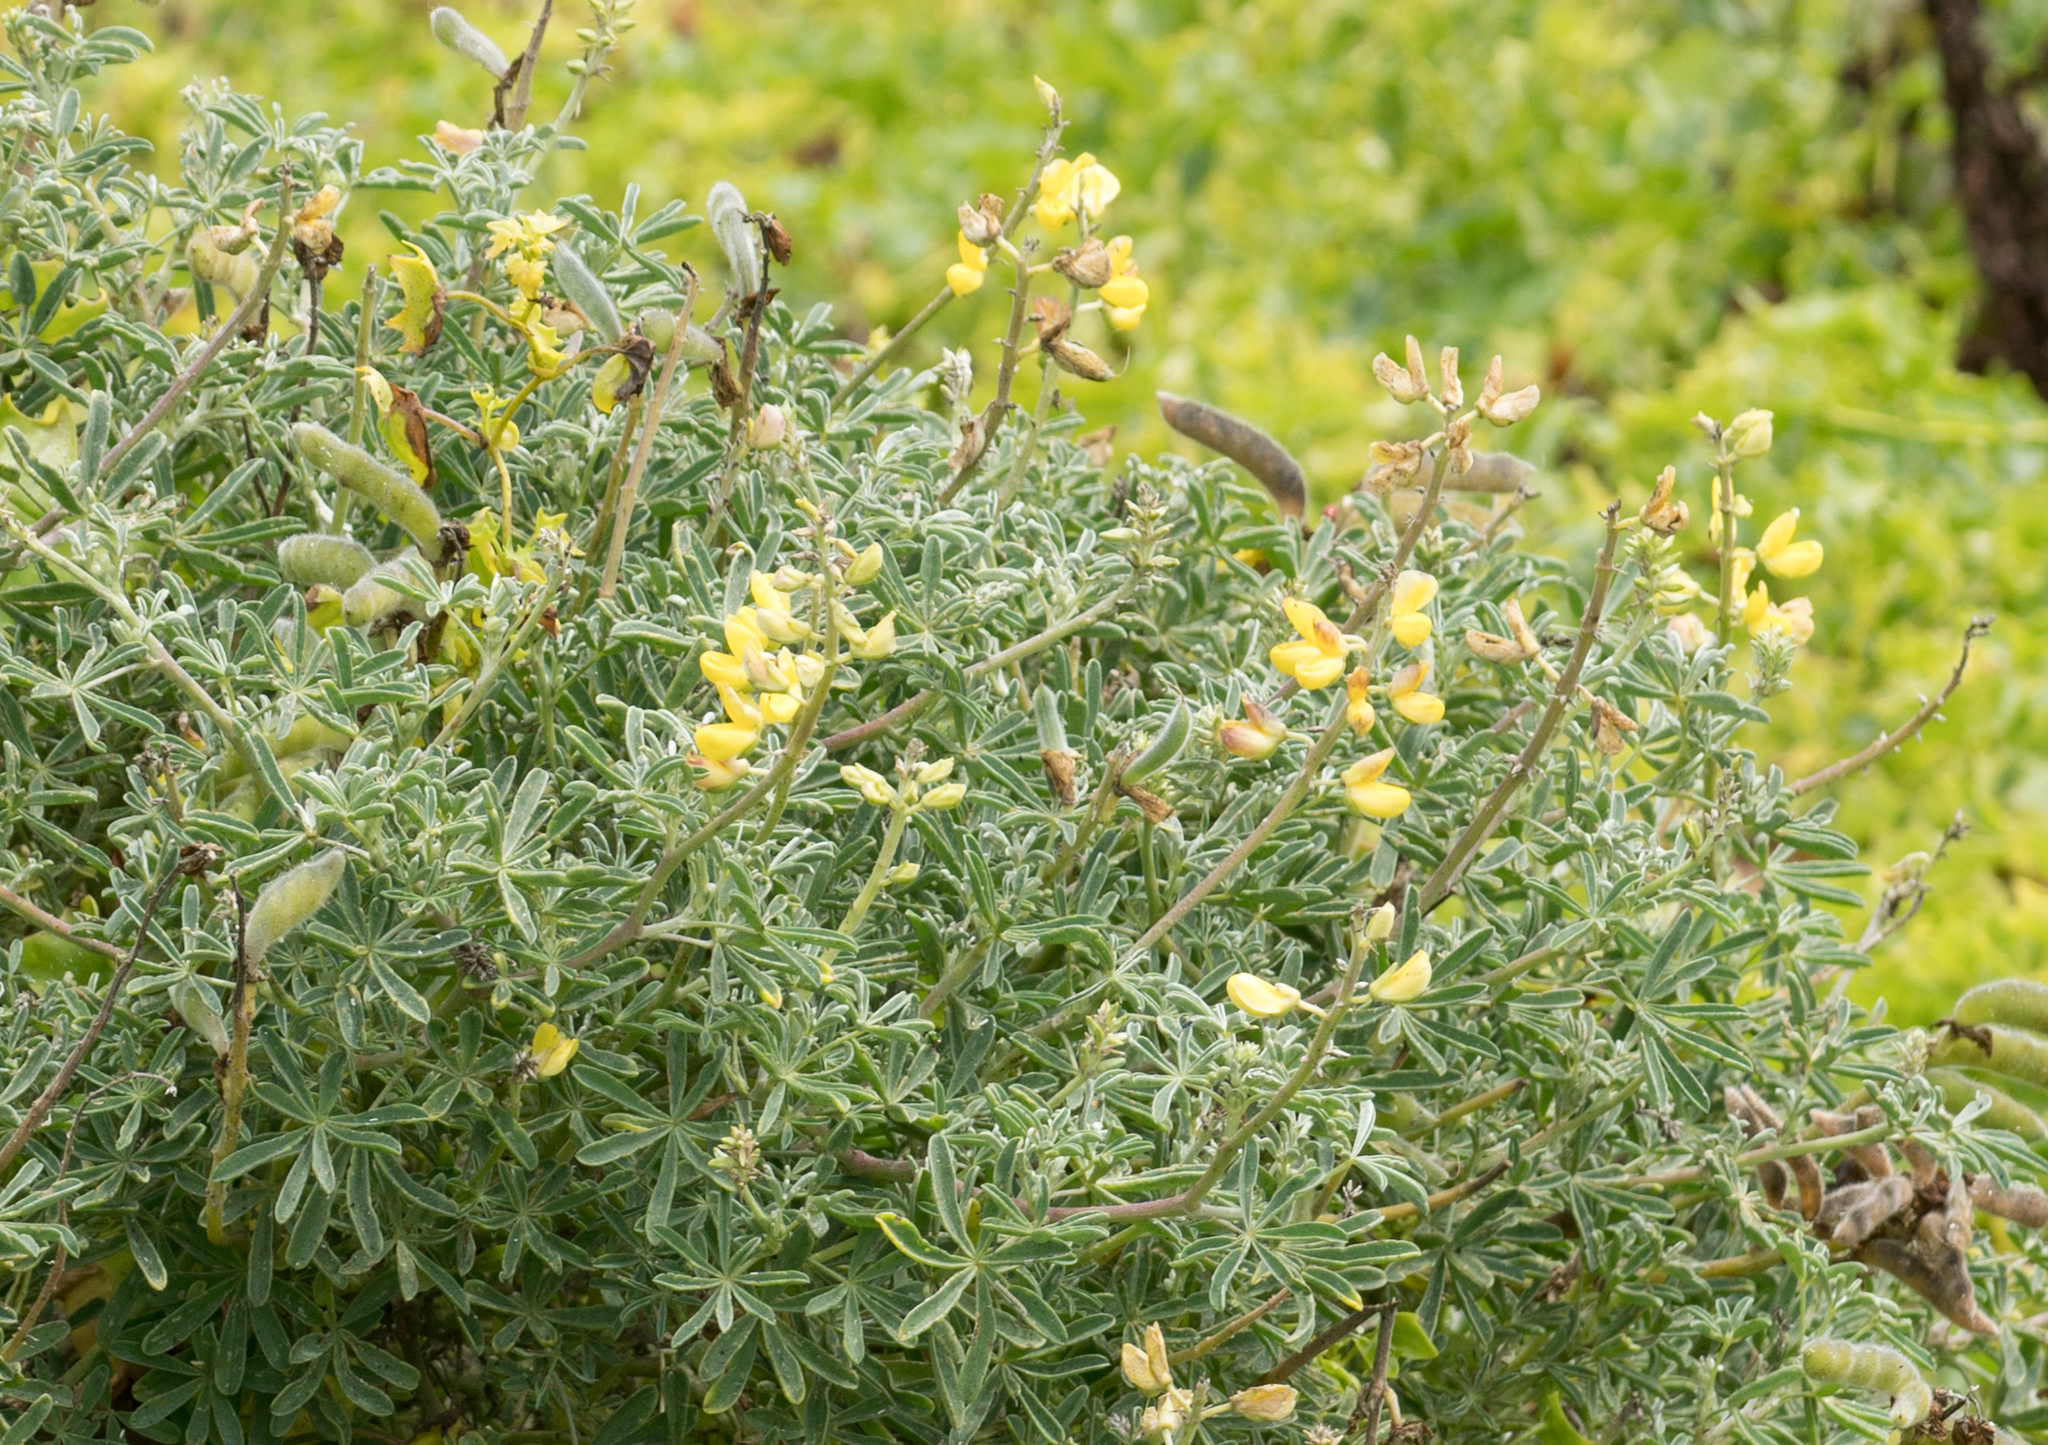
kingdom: Plantae
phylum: Tracheophyta
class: Magnoliopsida
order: Fabales
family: Fabaceae
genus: Lupinus
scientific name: Lupinus arboreus
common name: Yellow bush lupine
